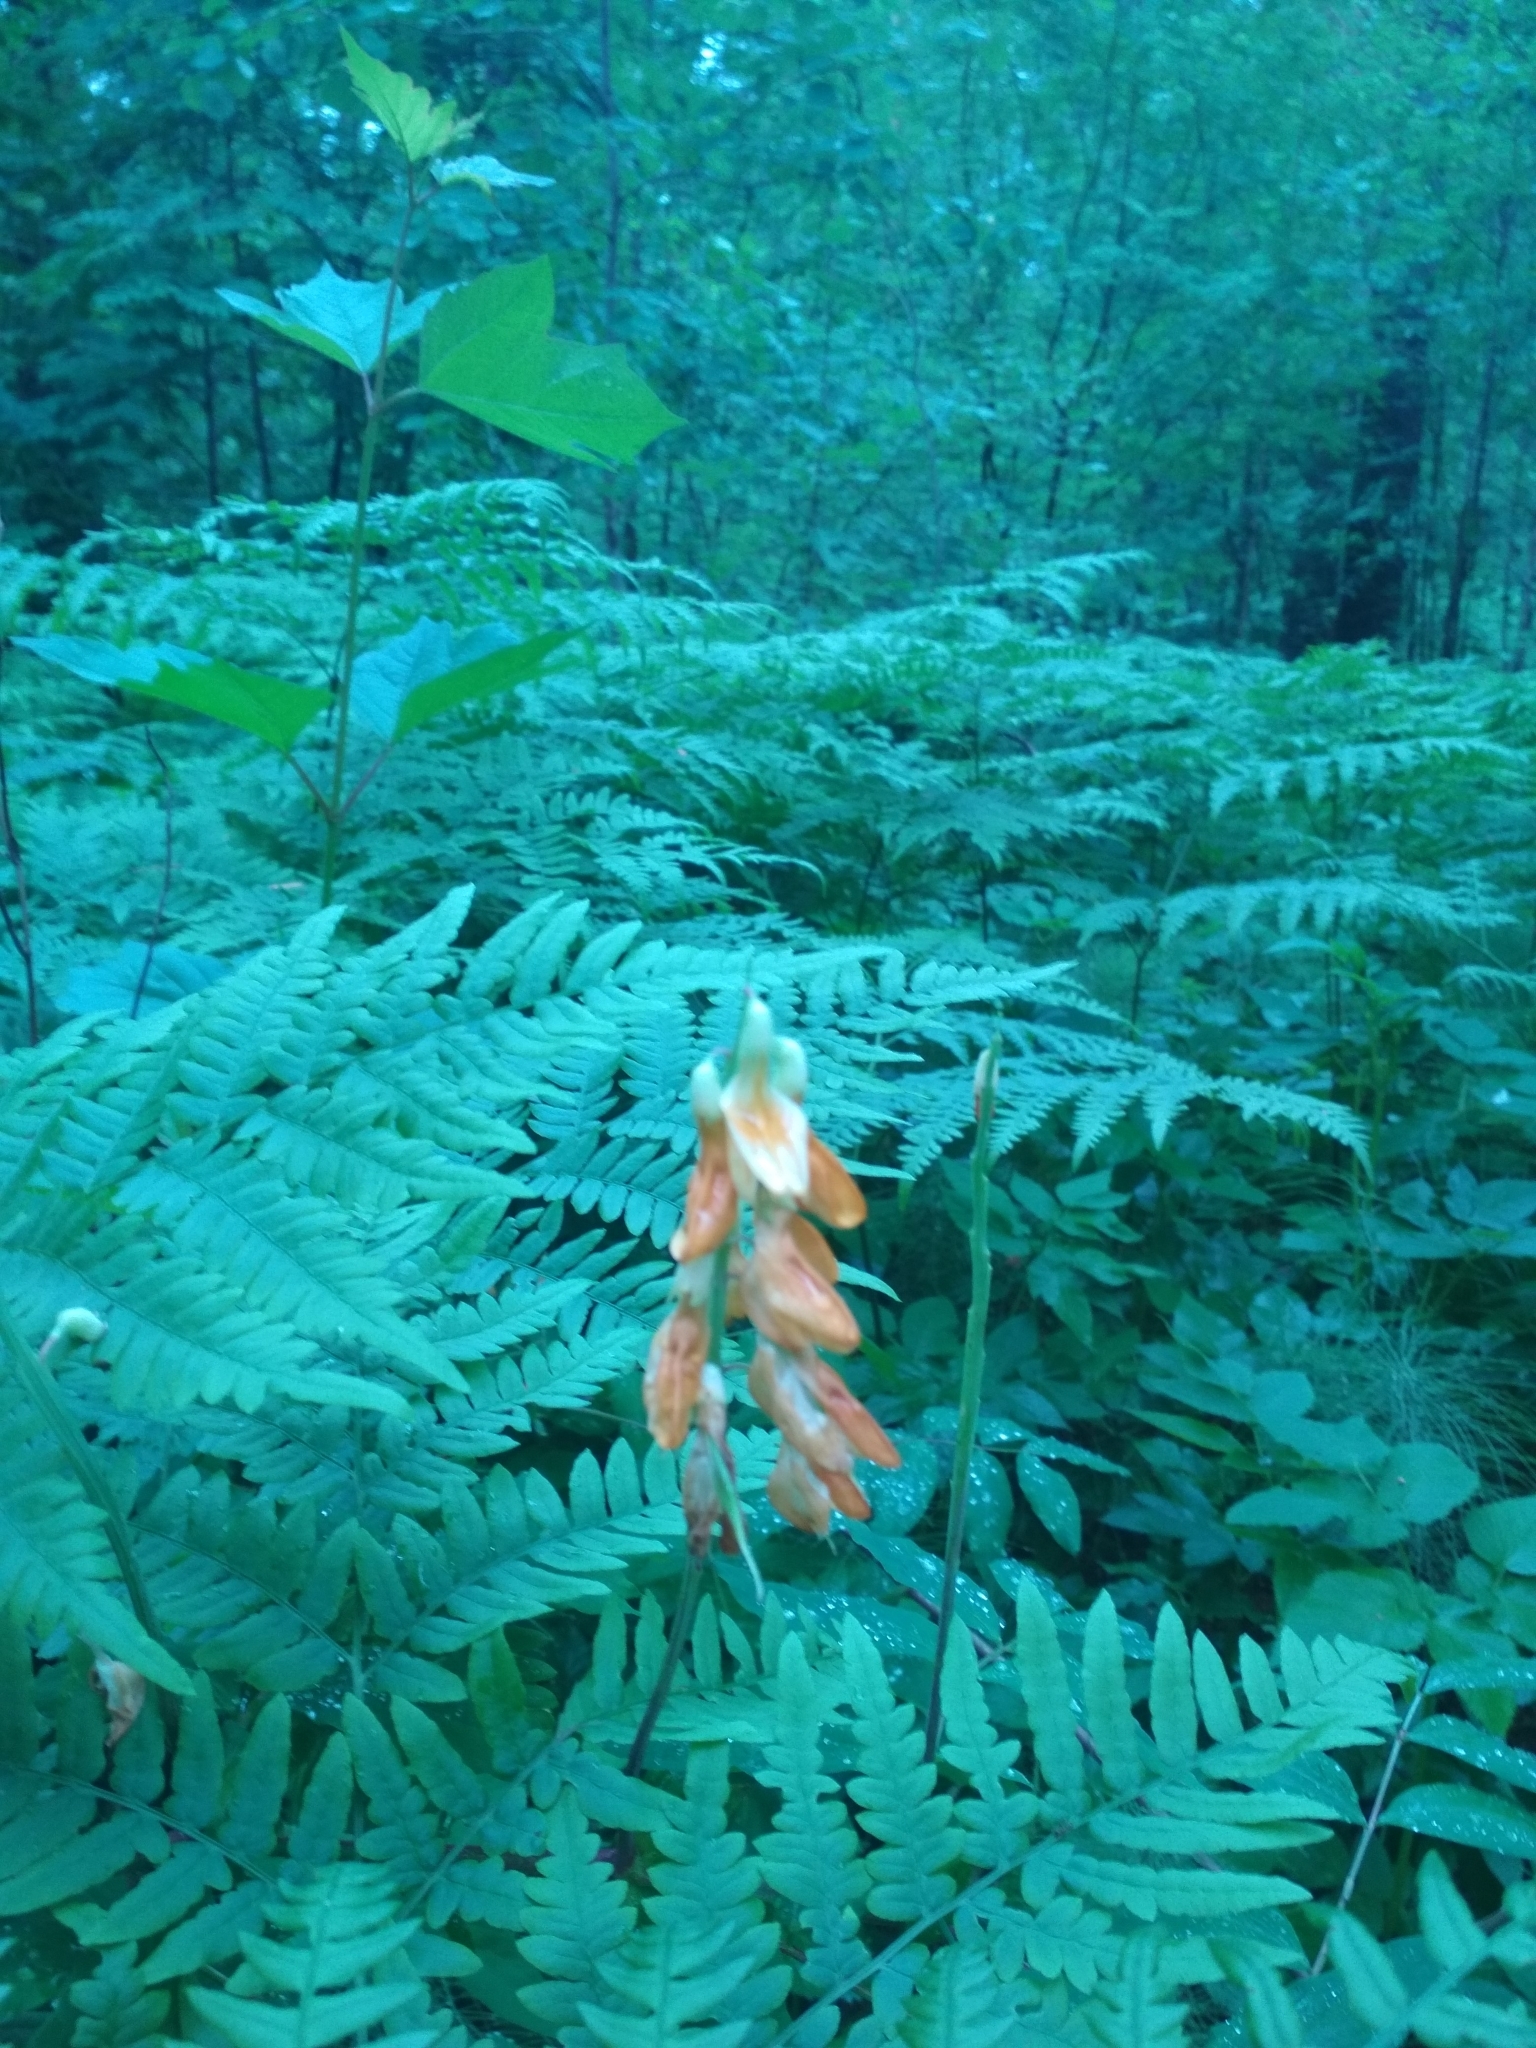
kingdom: Plantae
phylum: Tracheophyta
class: Magnoliopsida
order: Fabales
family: Fabaceae
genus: Lathyrus
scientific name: Lathyrus gmelinii
